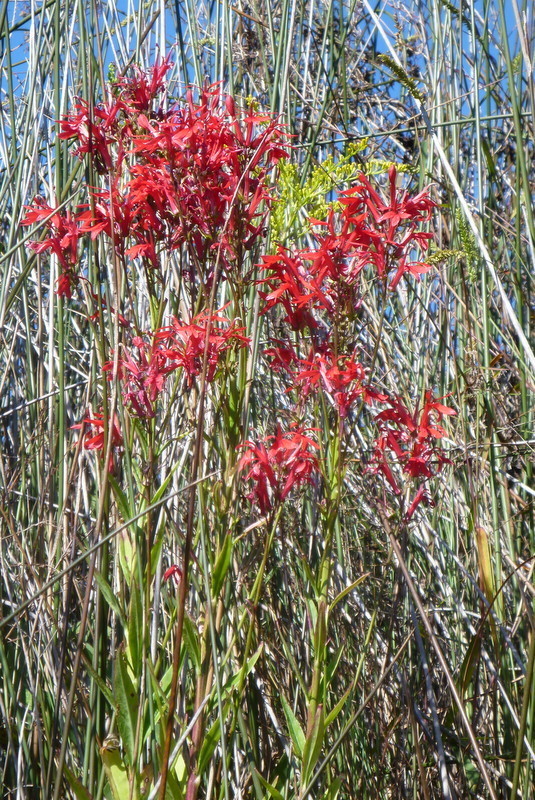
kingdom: Plantae
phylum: Tracheophyta
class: Magnoliopsida
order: Asterales
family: Campanulaceae
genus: Lobelia
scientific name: Lobelia cardinalis
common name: Cardinal flower
